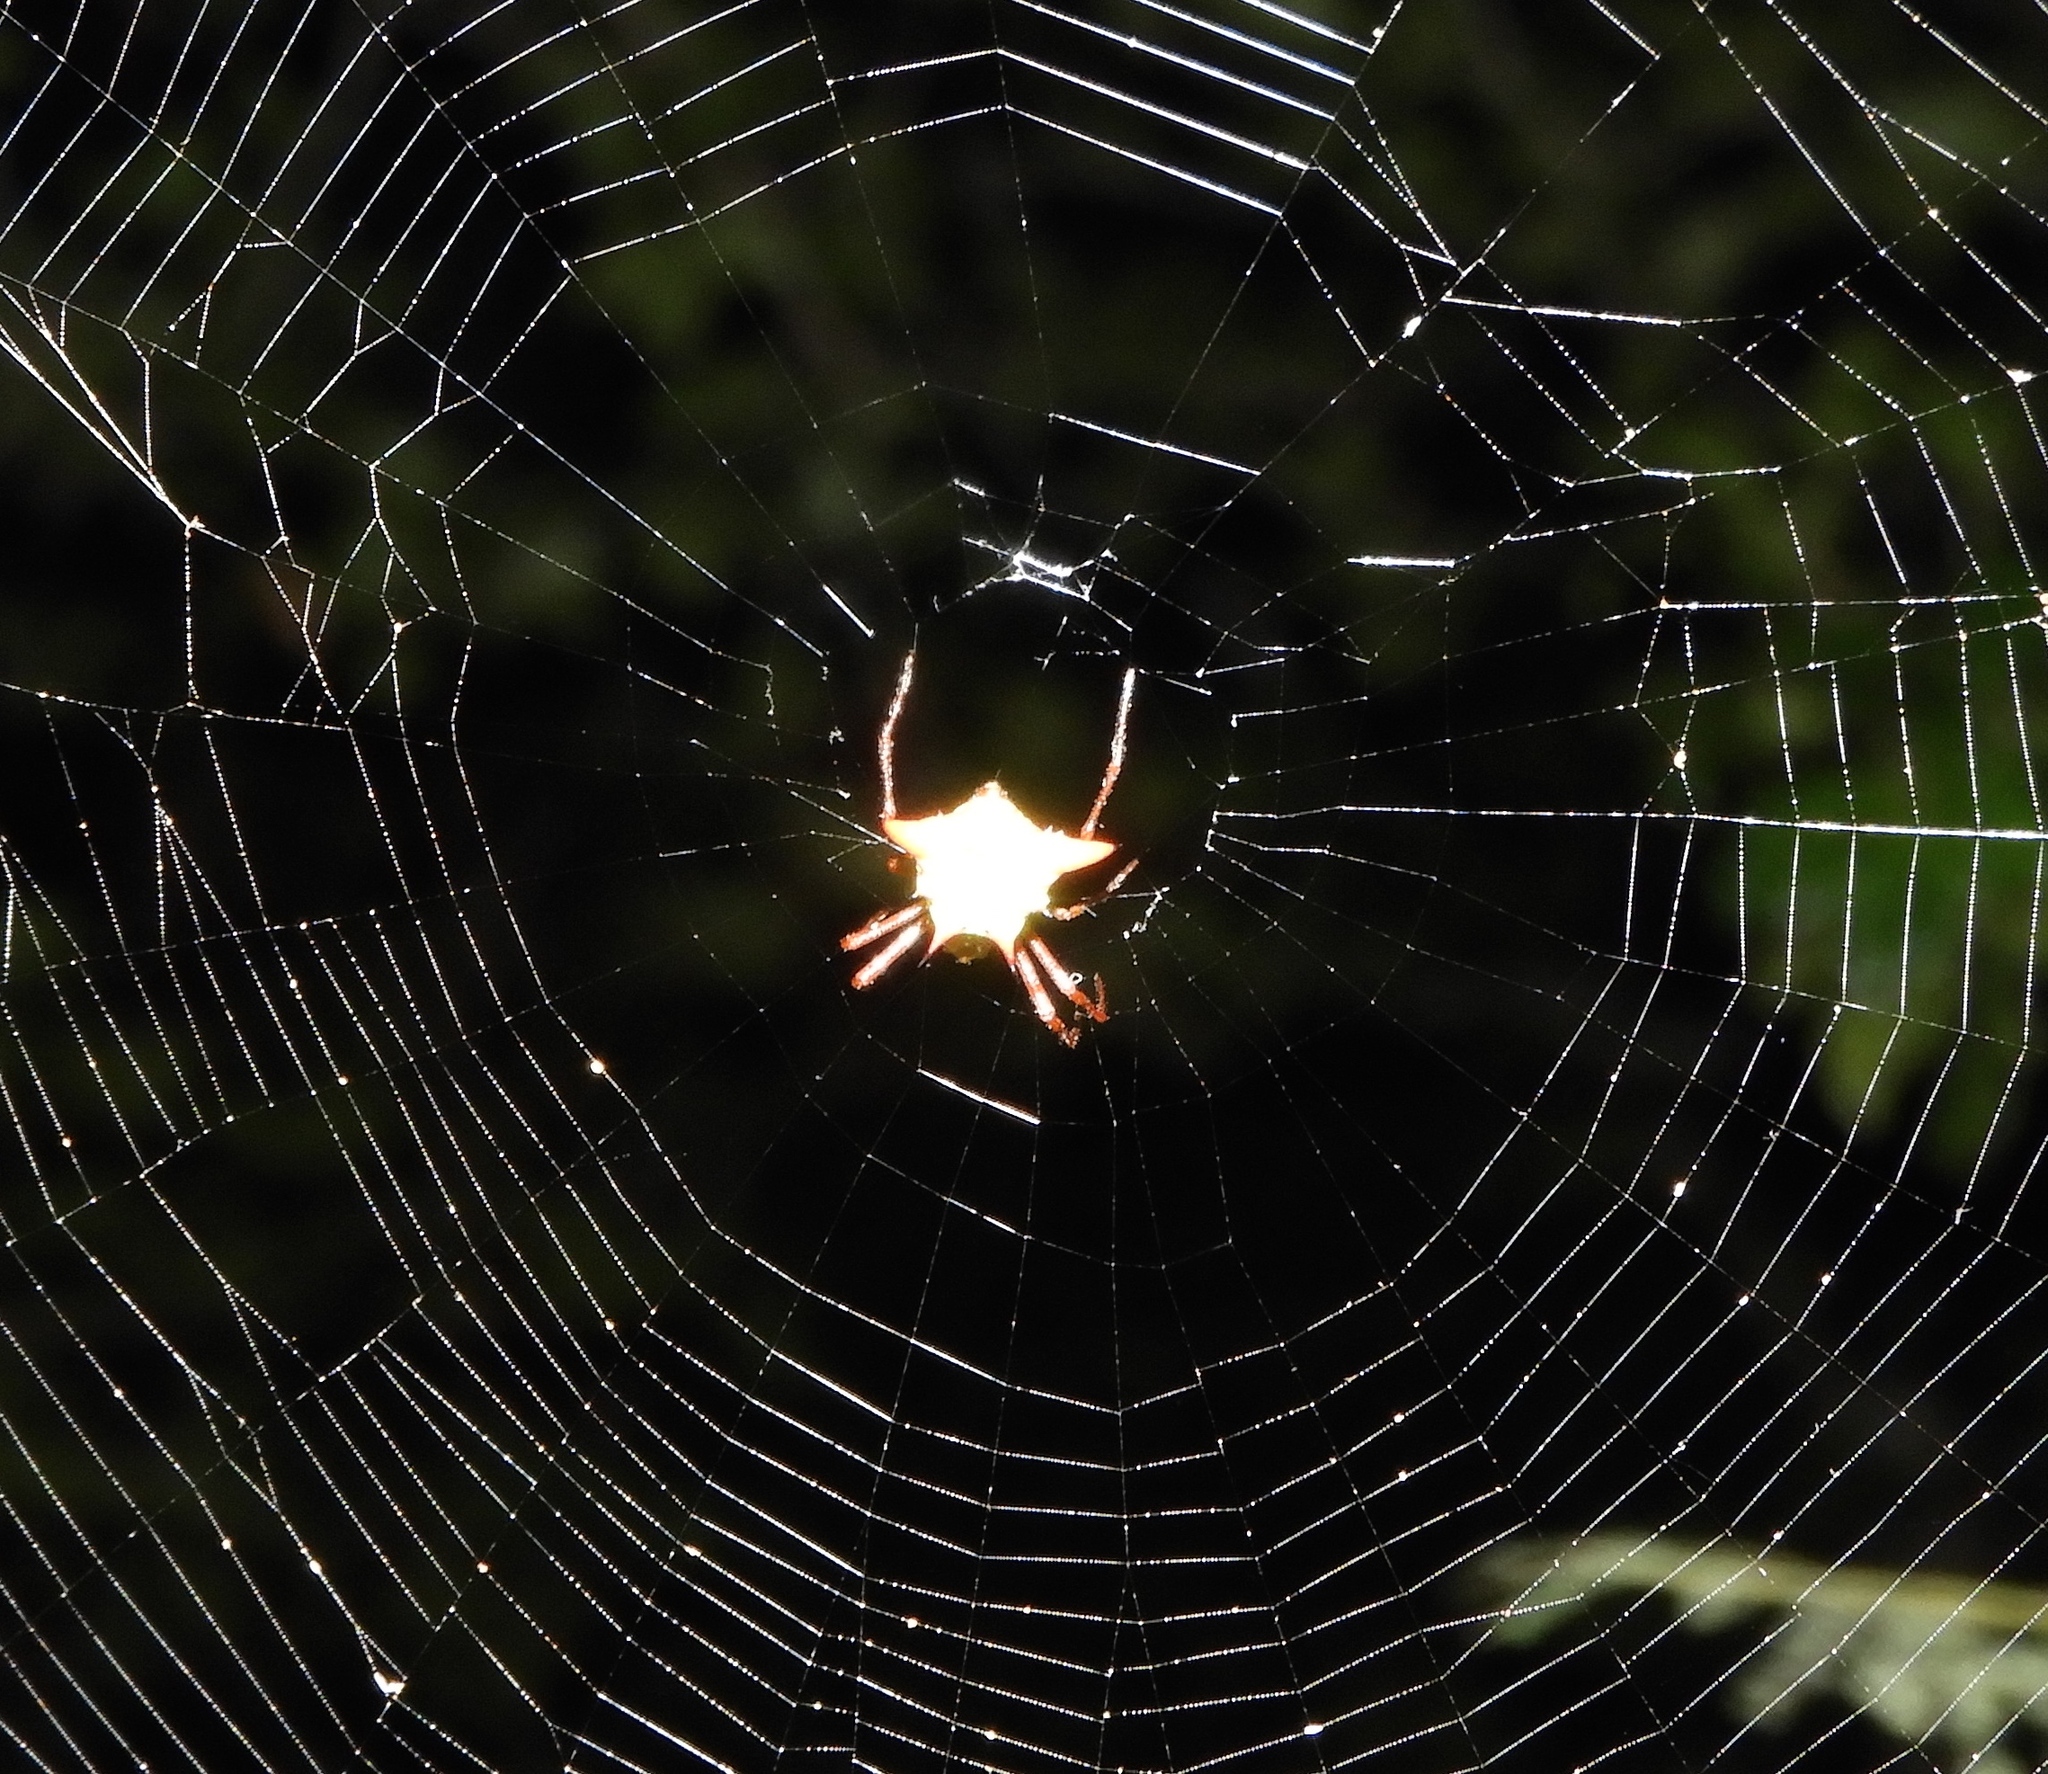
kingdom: Animalia
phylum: Arthropoda
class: Arachnida
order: Araneae
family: Araneidae
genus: Micrathena
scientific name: Micrathena sagittata
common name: Orb weavers
